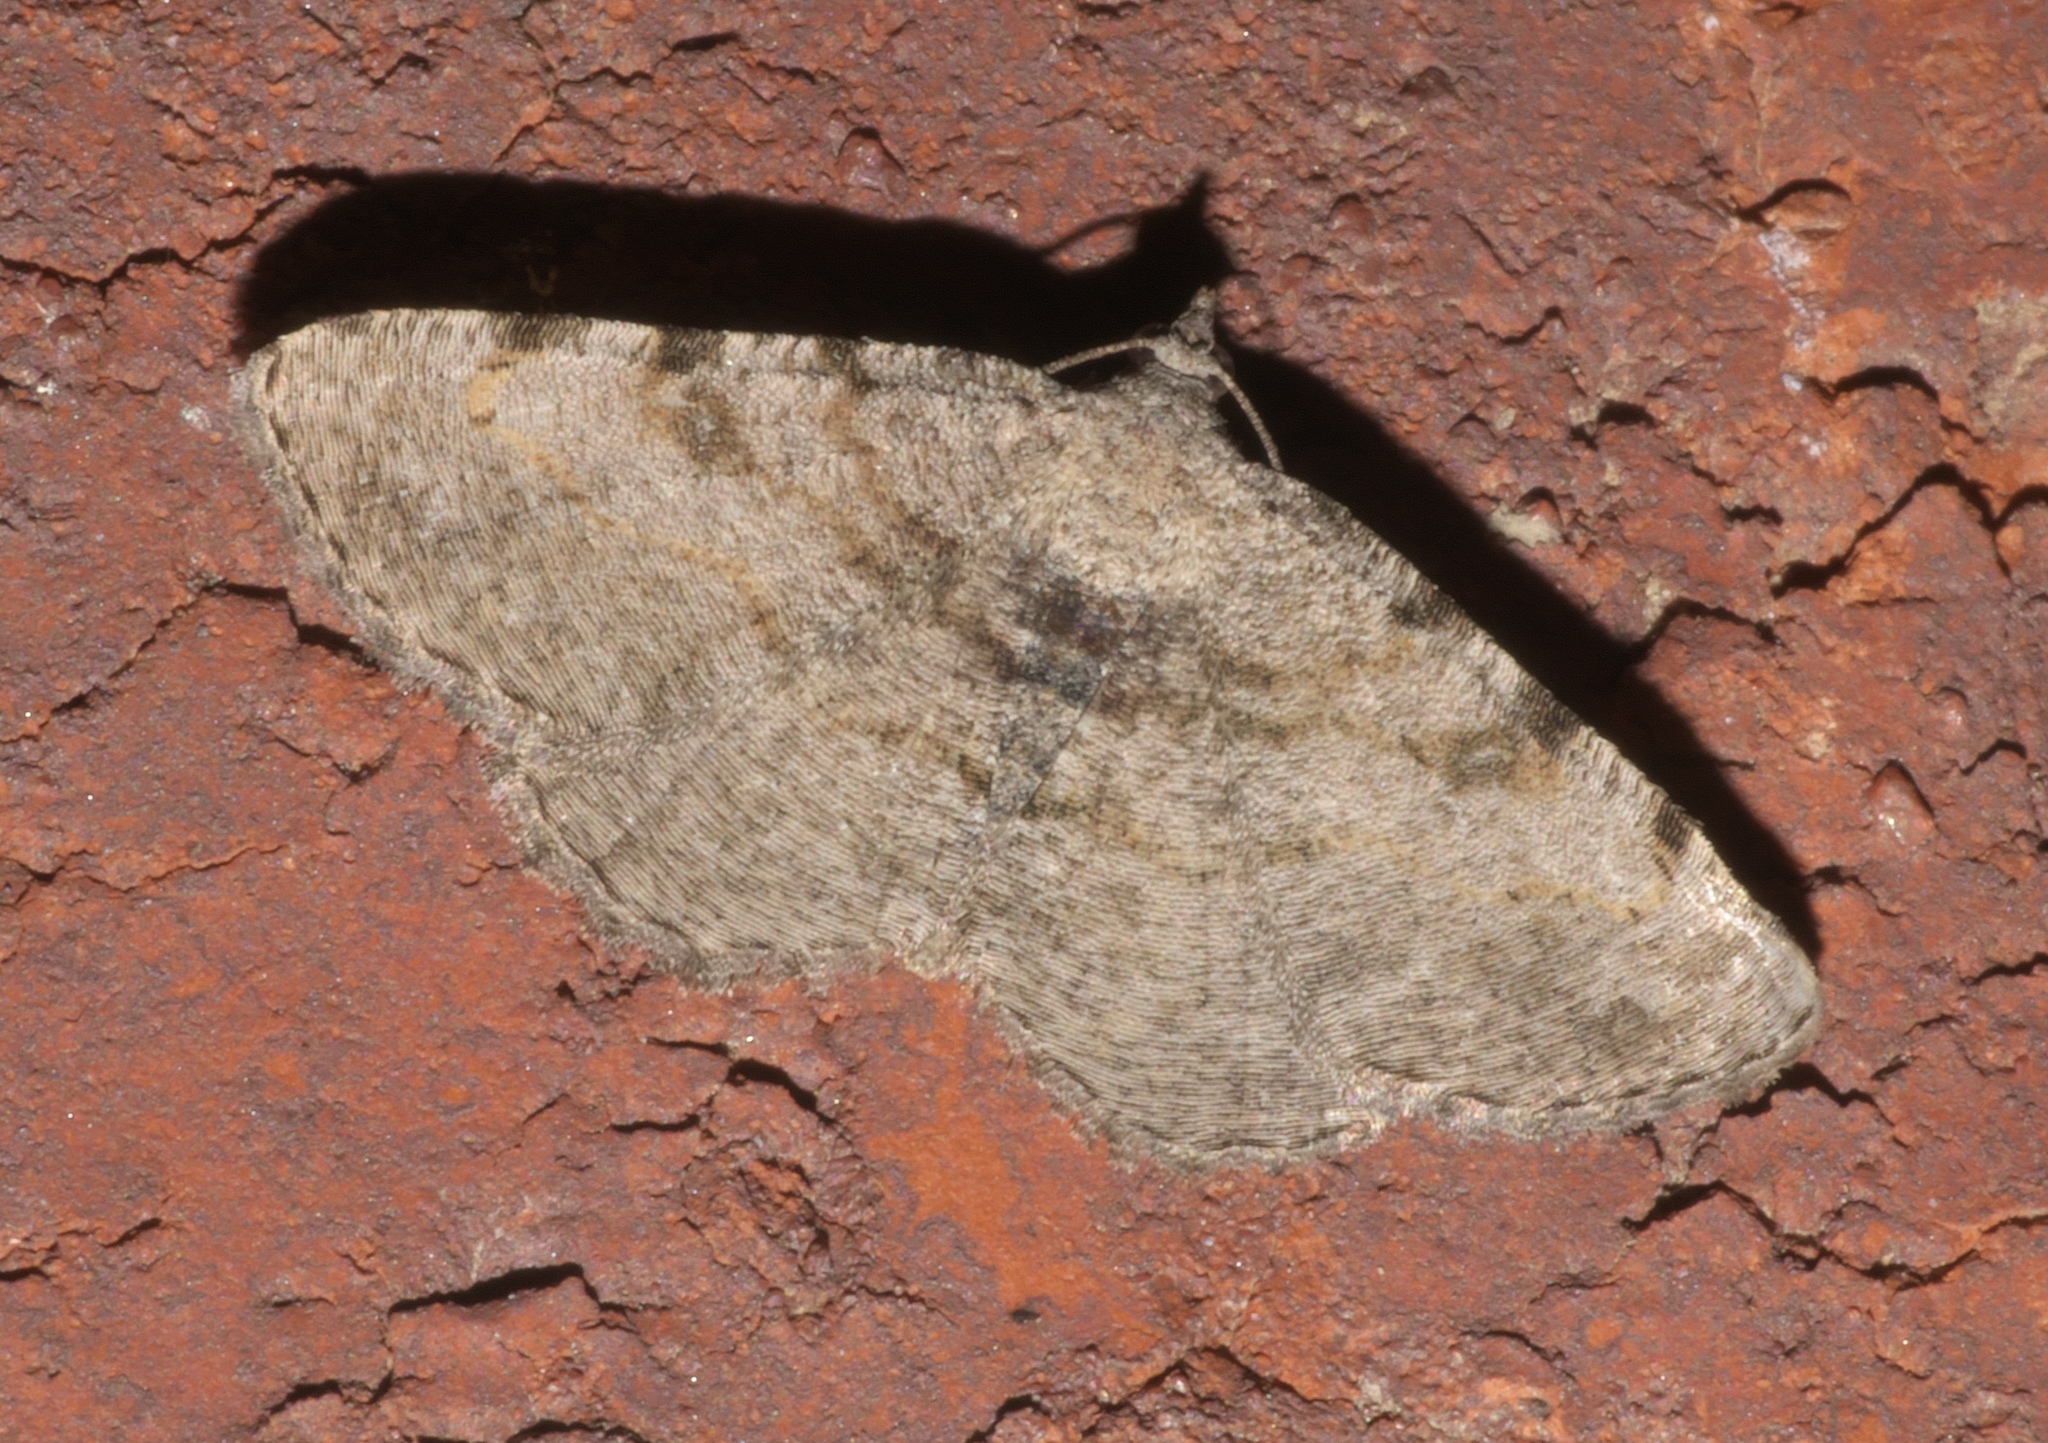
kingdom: Animalia
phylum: Arthropoda
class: Insecta
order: Lepidoptera
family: Geometridae
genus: Digrammia
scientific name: Digrammia gnophosaria
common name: Hollow-spotted angle
